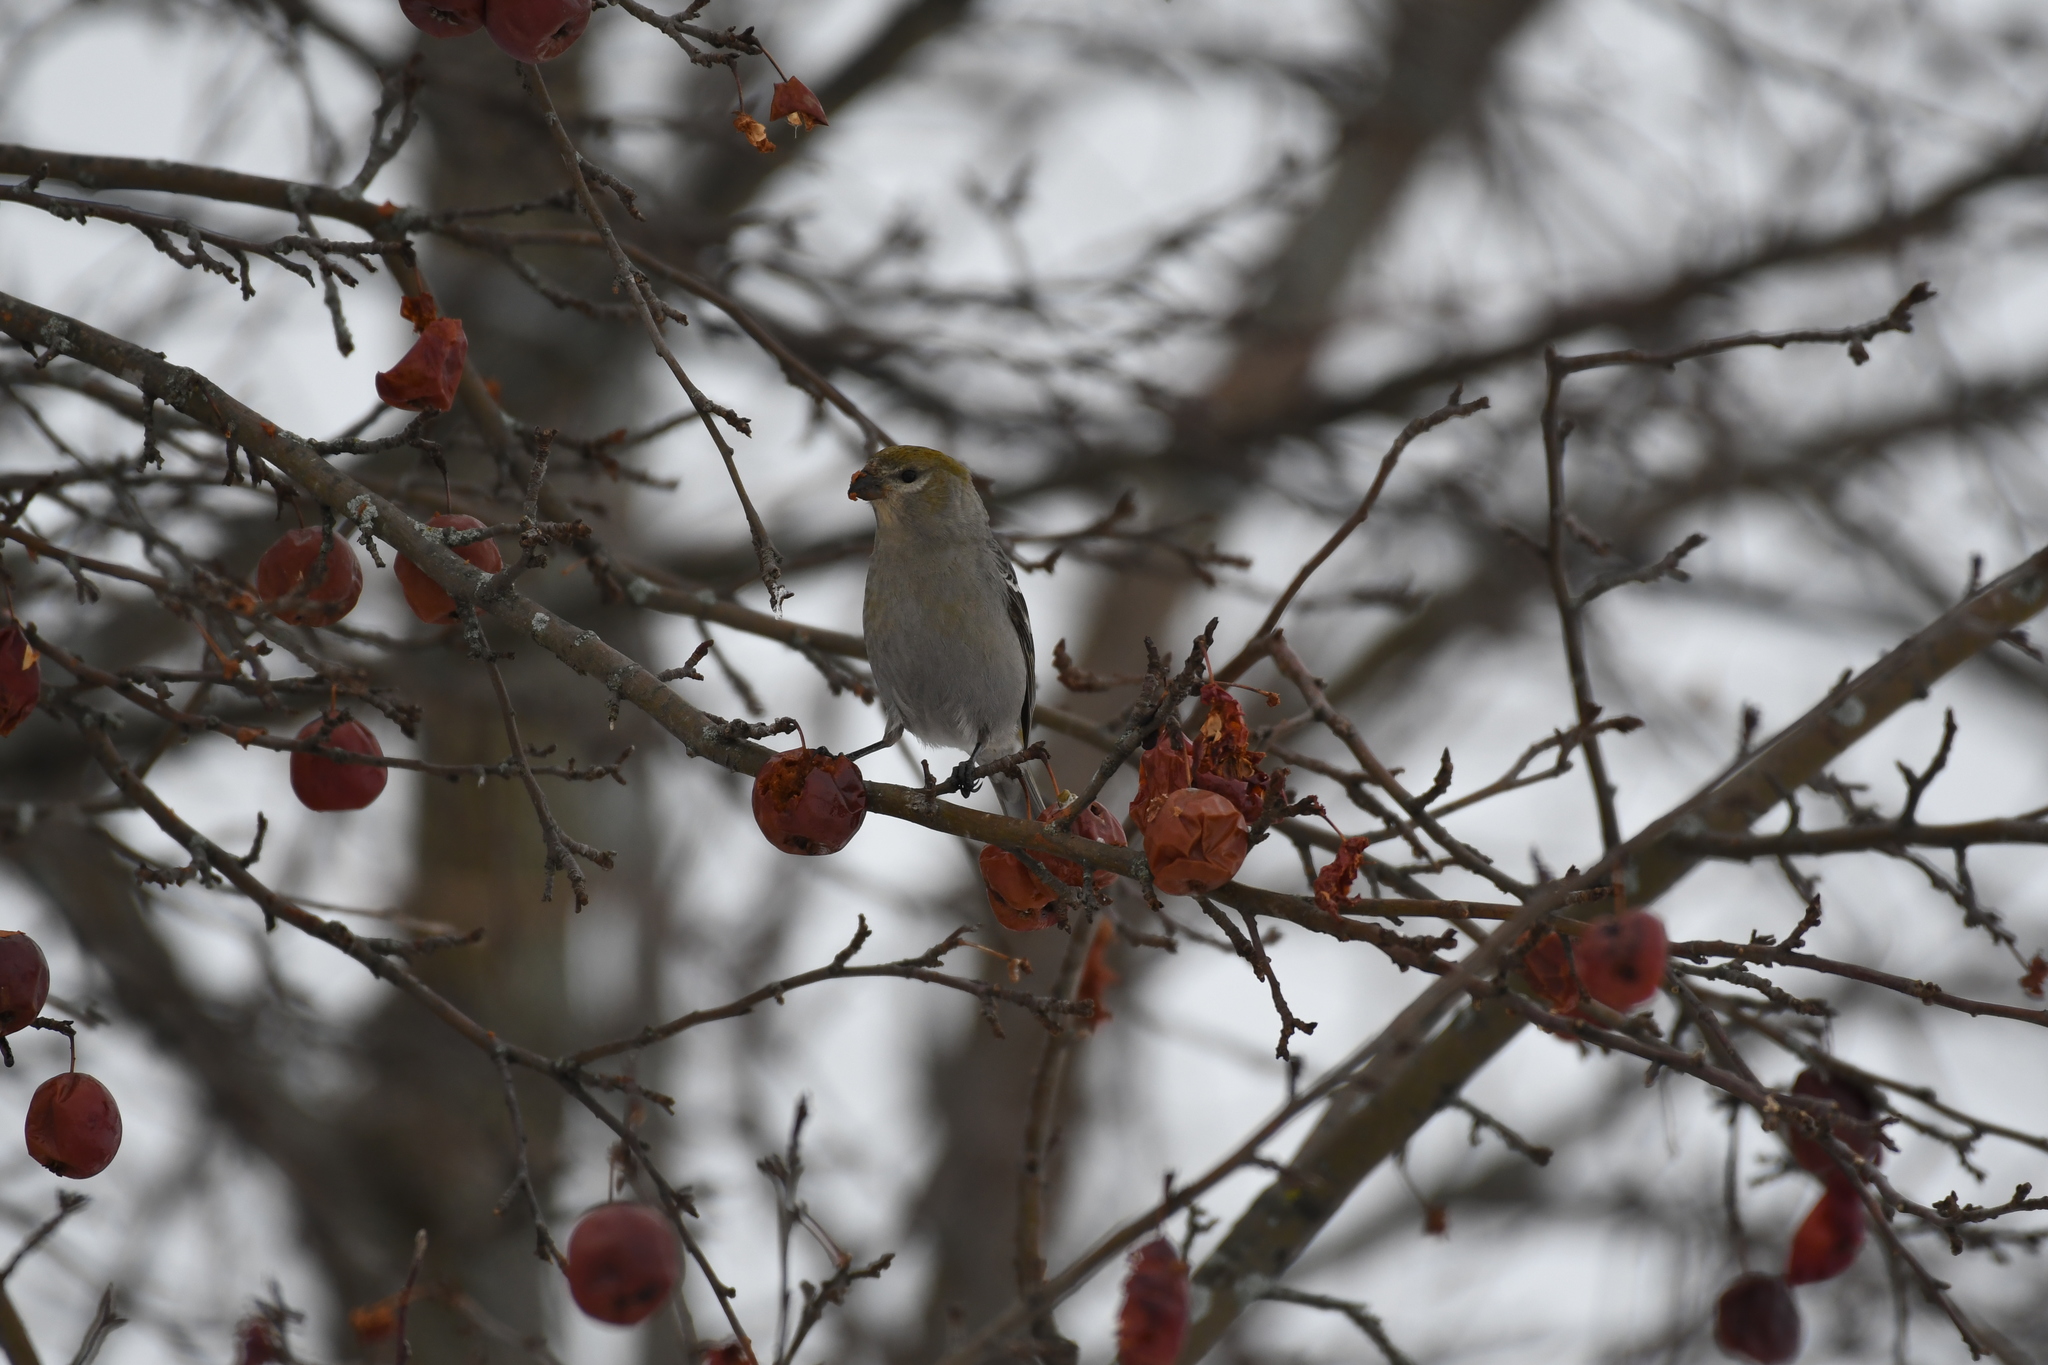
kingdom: Animalia
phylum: Chordata
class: Aves
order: Passeriformes
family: Fringillidae
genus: Pinicola
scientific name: Pinicola enucleator
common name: Pine grosbeak
